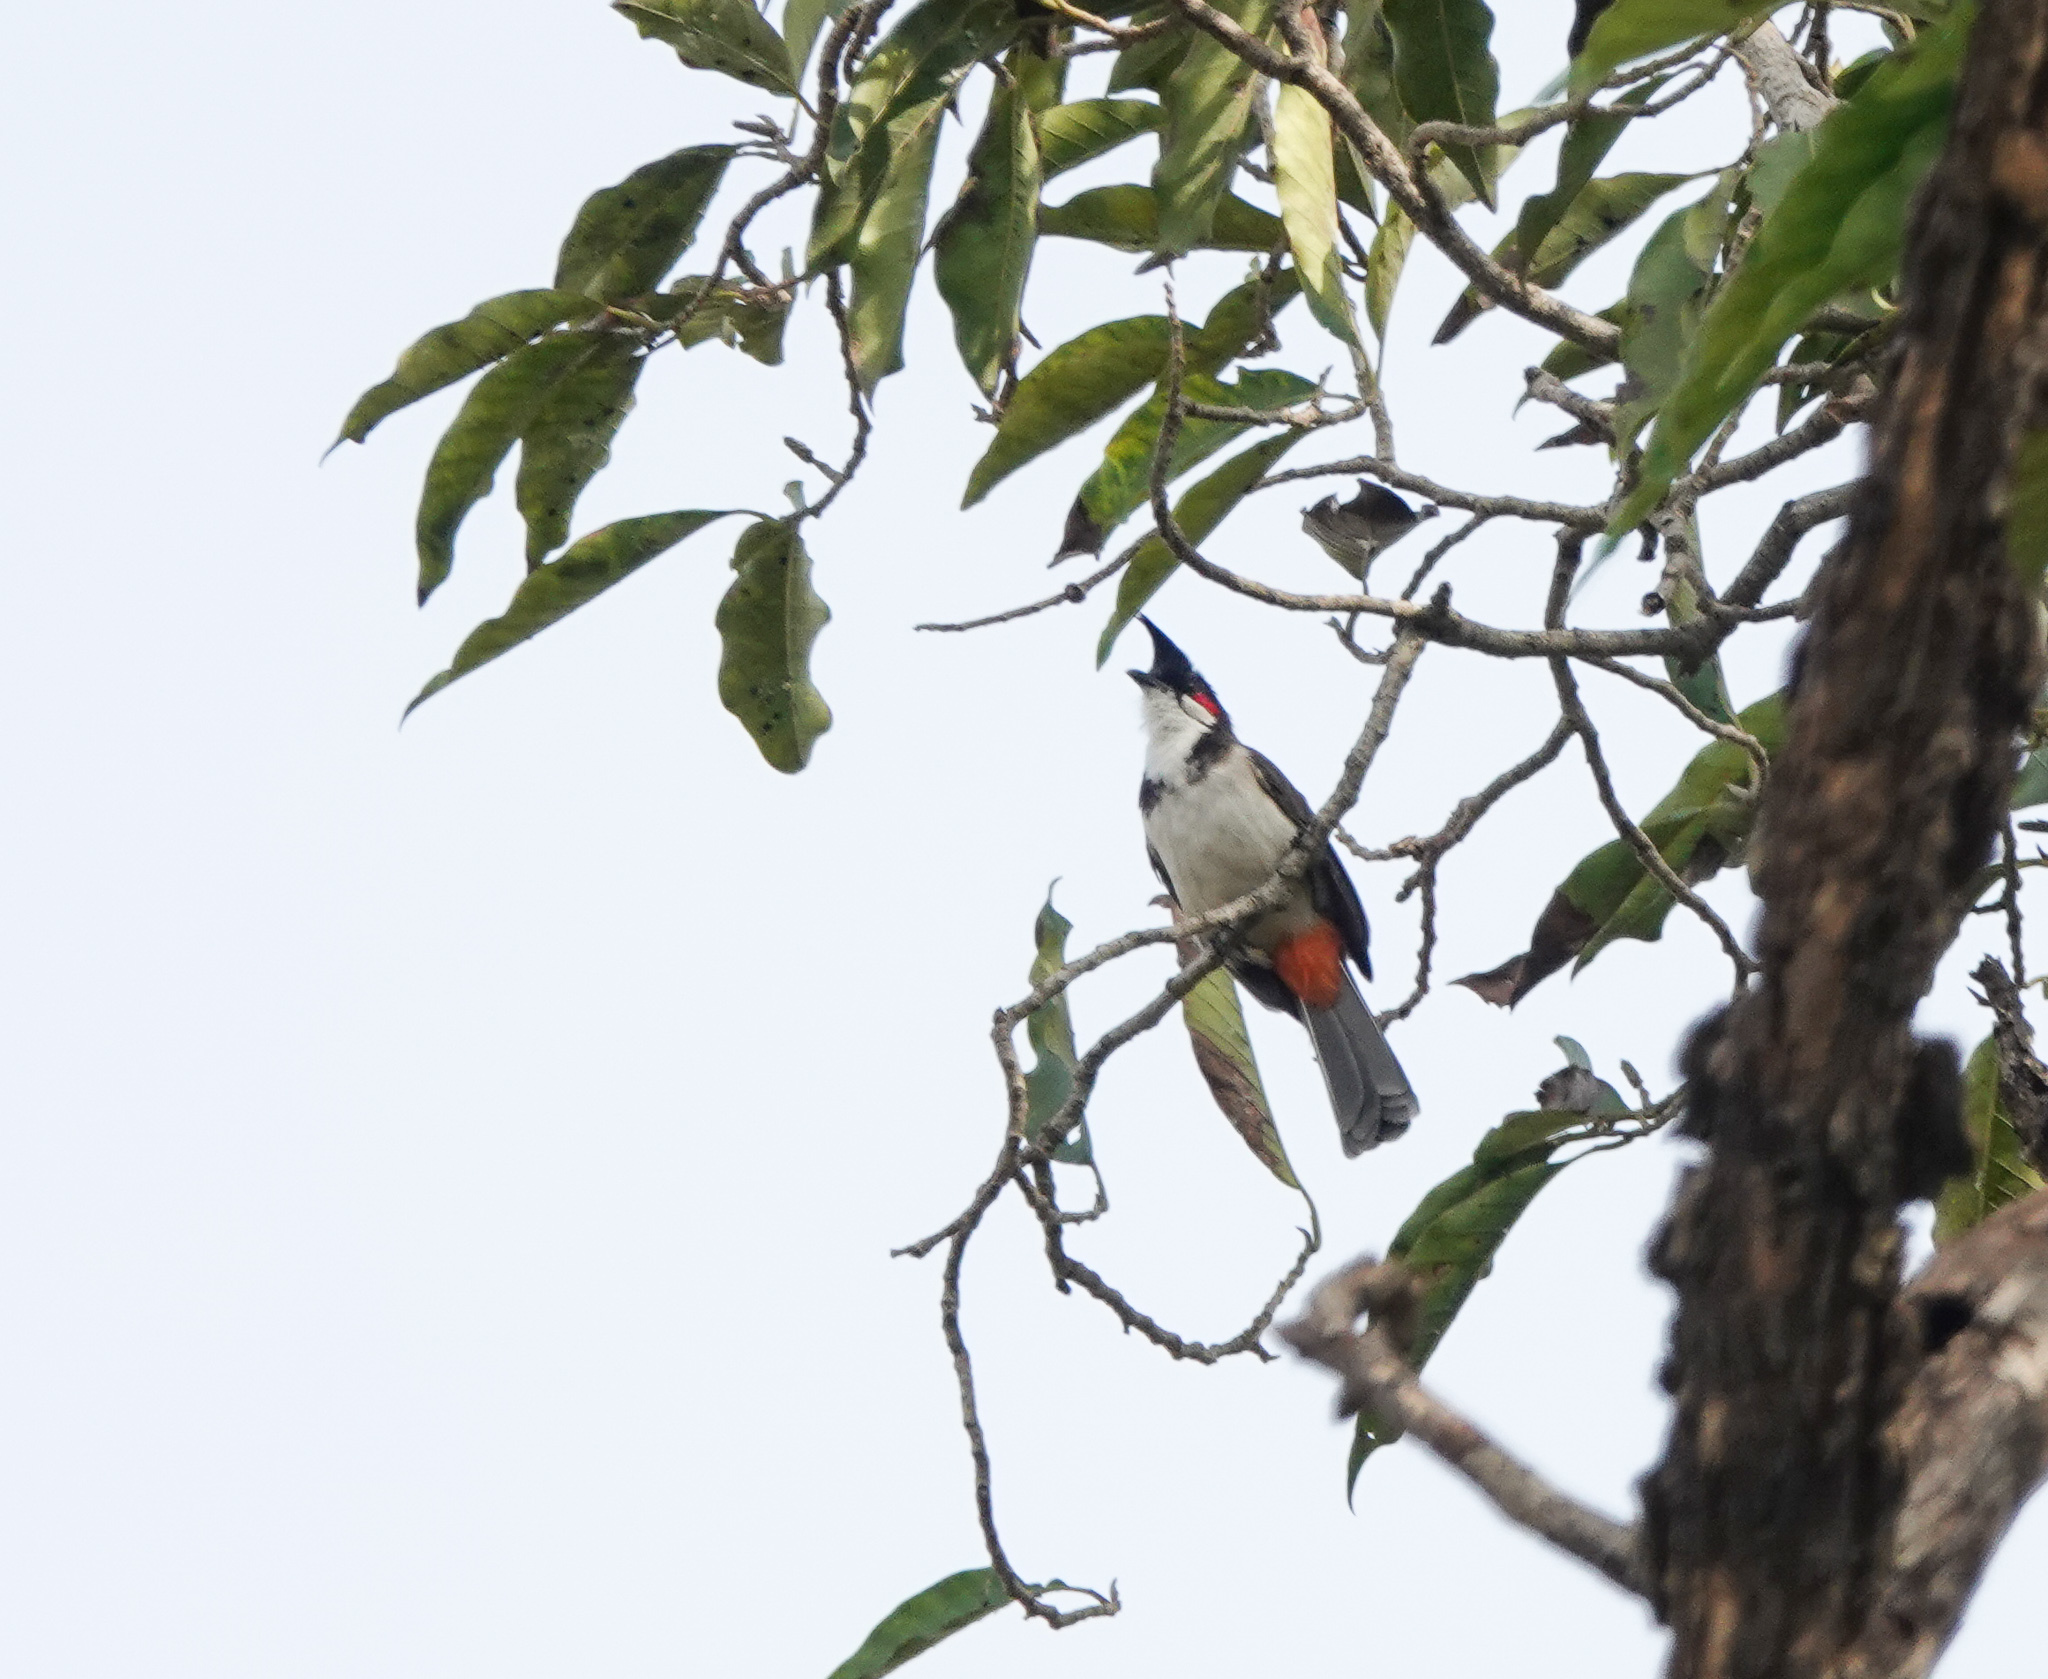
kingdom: Animalia
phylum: Chordata
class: Aves
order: Passeriformes
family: Pycnonotidae
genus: Pycnonotus
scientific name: Pycnonotus jocosus
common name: Red-whiskered bulbul
